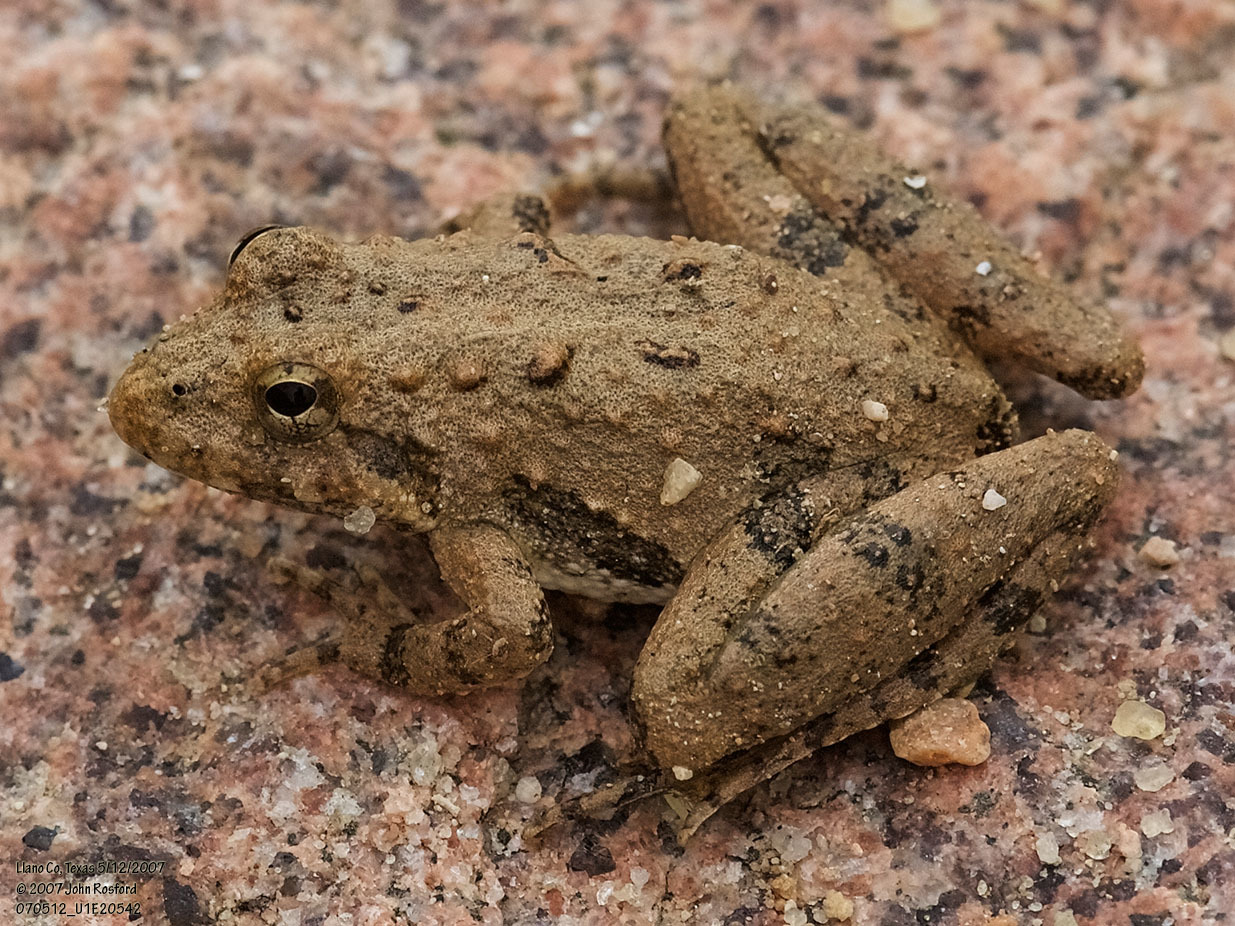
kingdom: Animalia
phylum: Chordata
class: Amphibia
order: Anura
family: Hylidae
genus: Acris
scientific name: Acris blanchardi
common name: Blanchard's cricket frog
